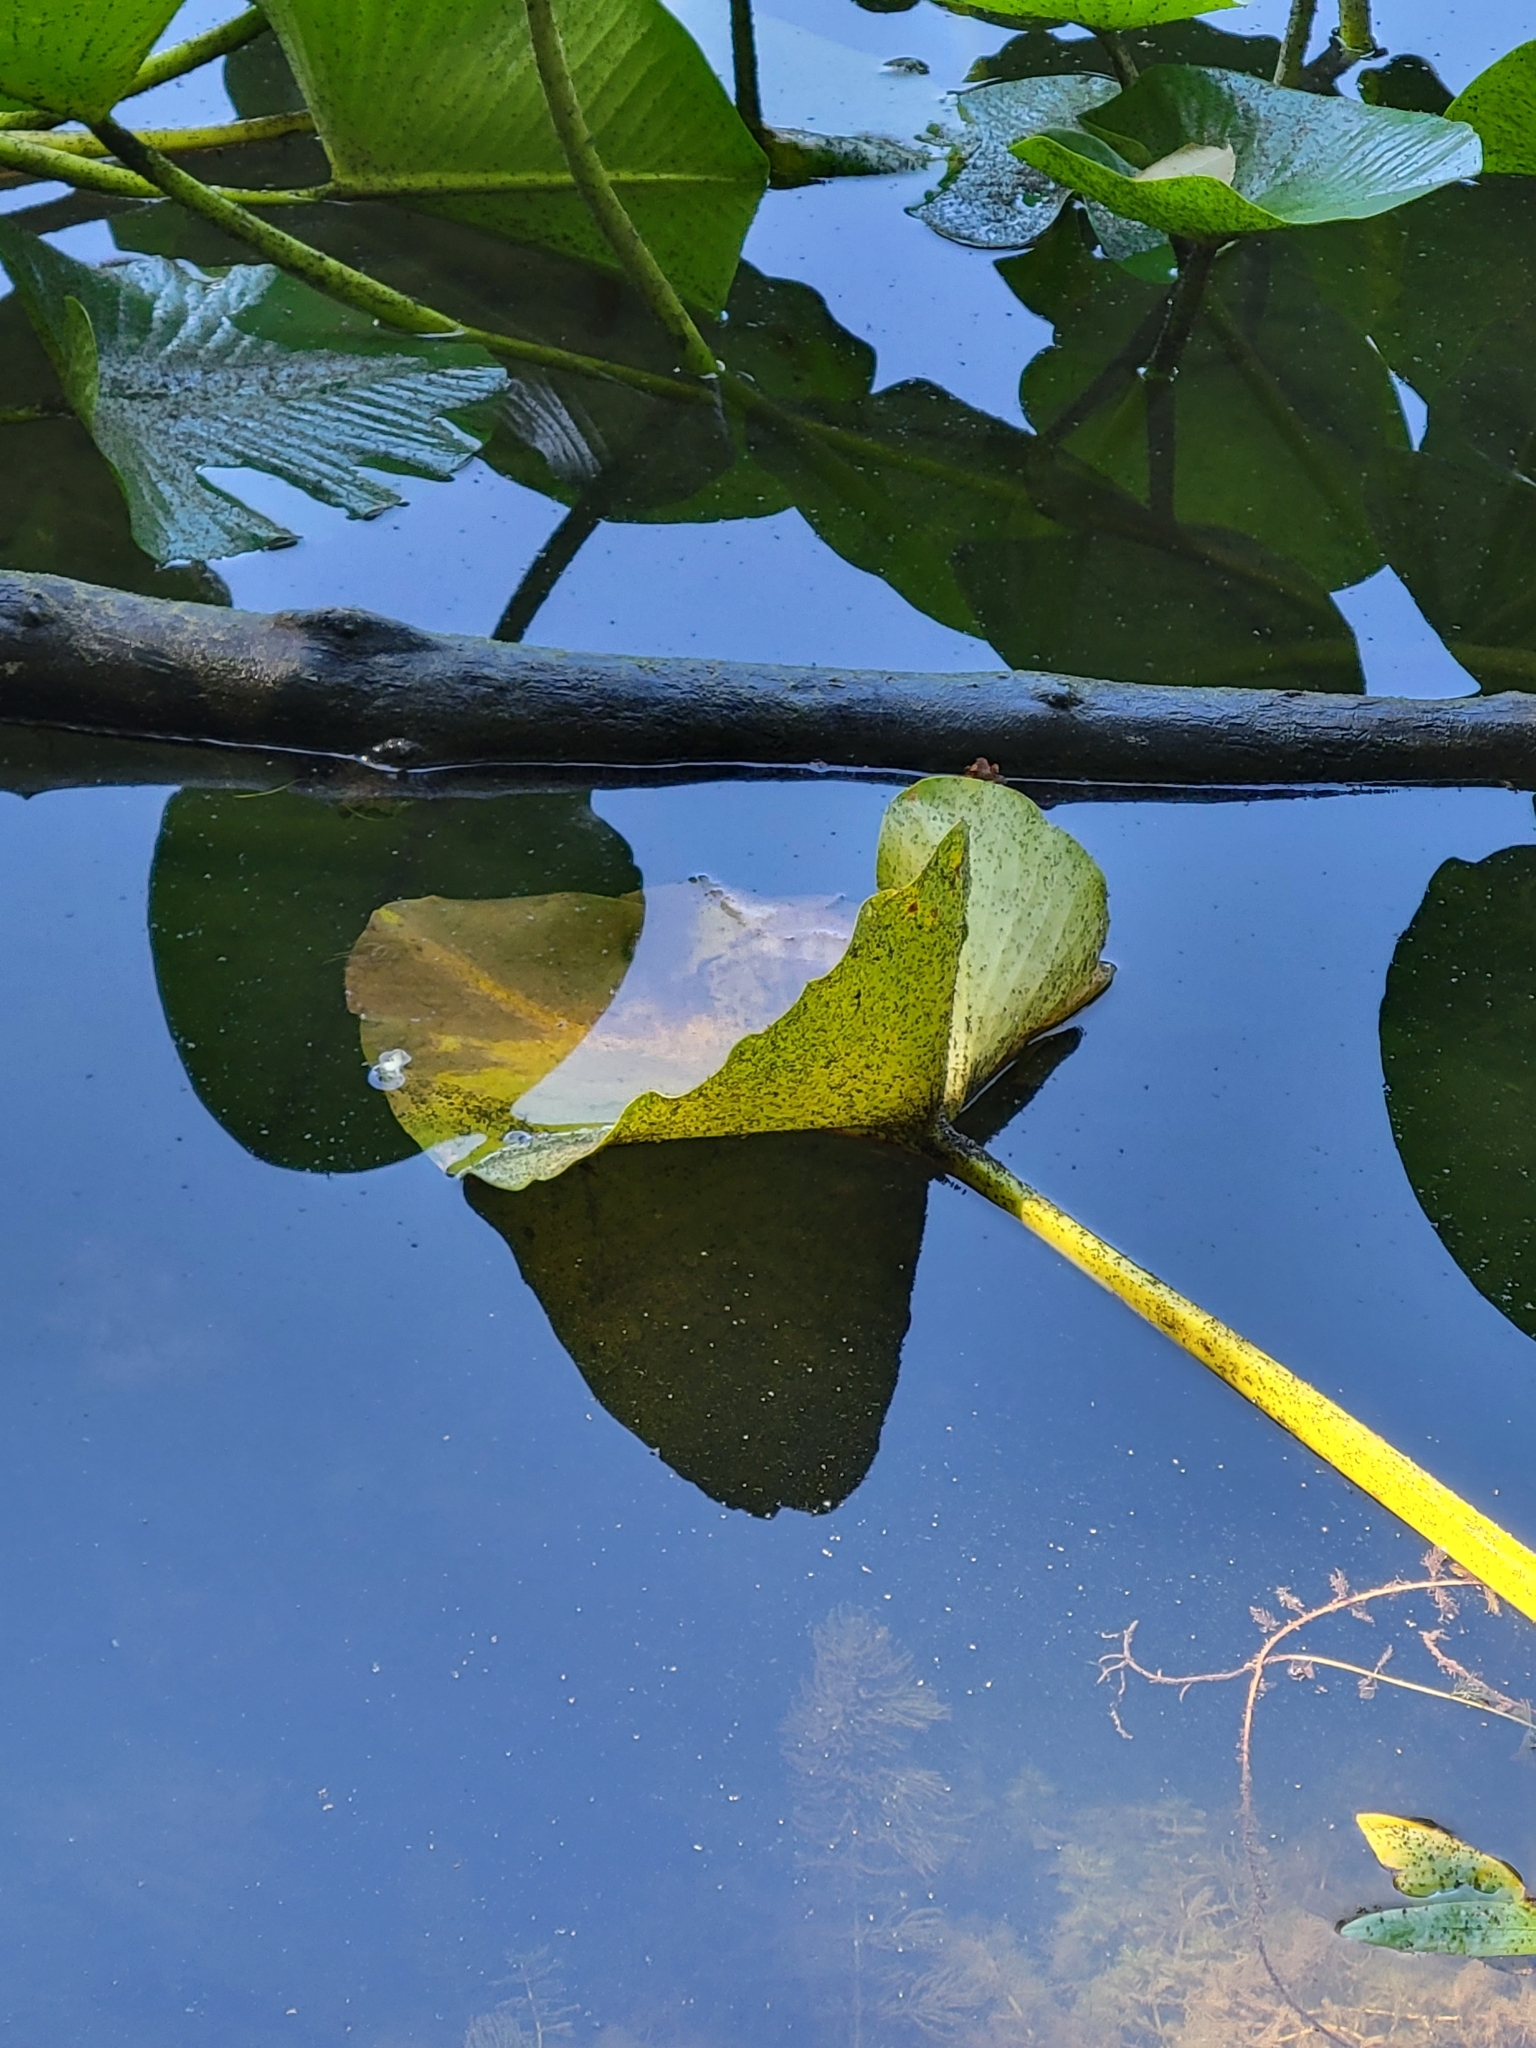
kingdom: Plantae
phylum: Tracheophyta
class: Magnoliopsida
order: Nymphaeales
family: Nymphaeaceae
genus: Nuphar
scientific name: Nuphar polysepala
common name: Rocky mountain cow-lily
